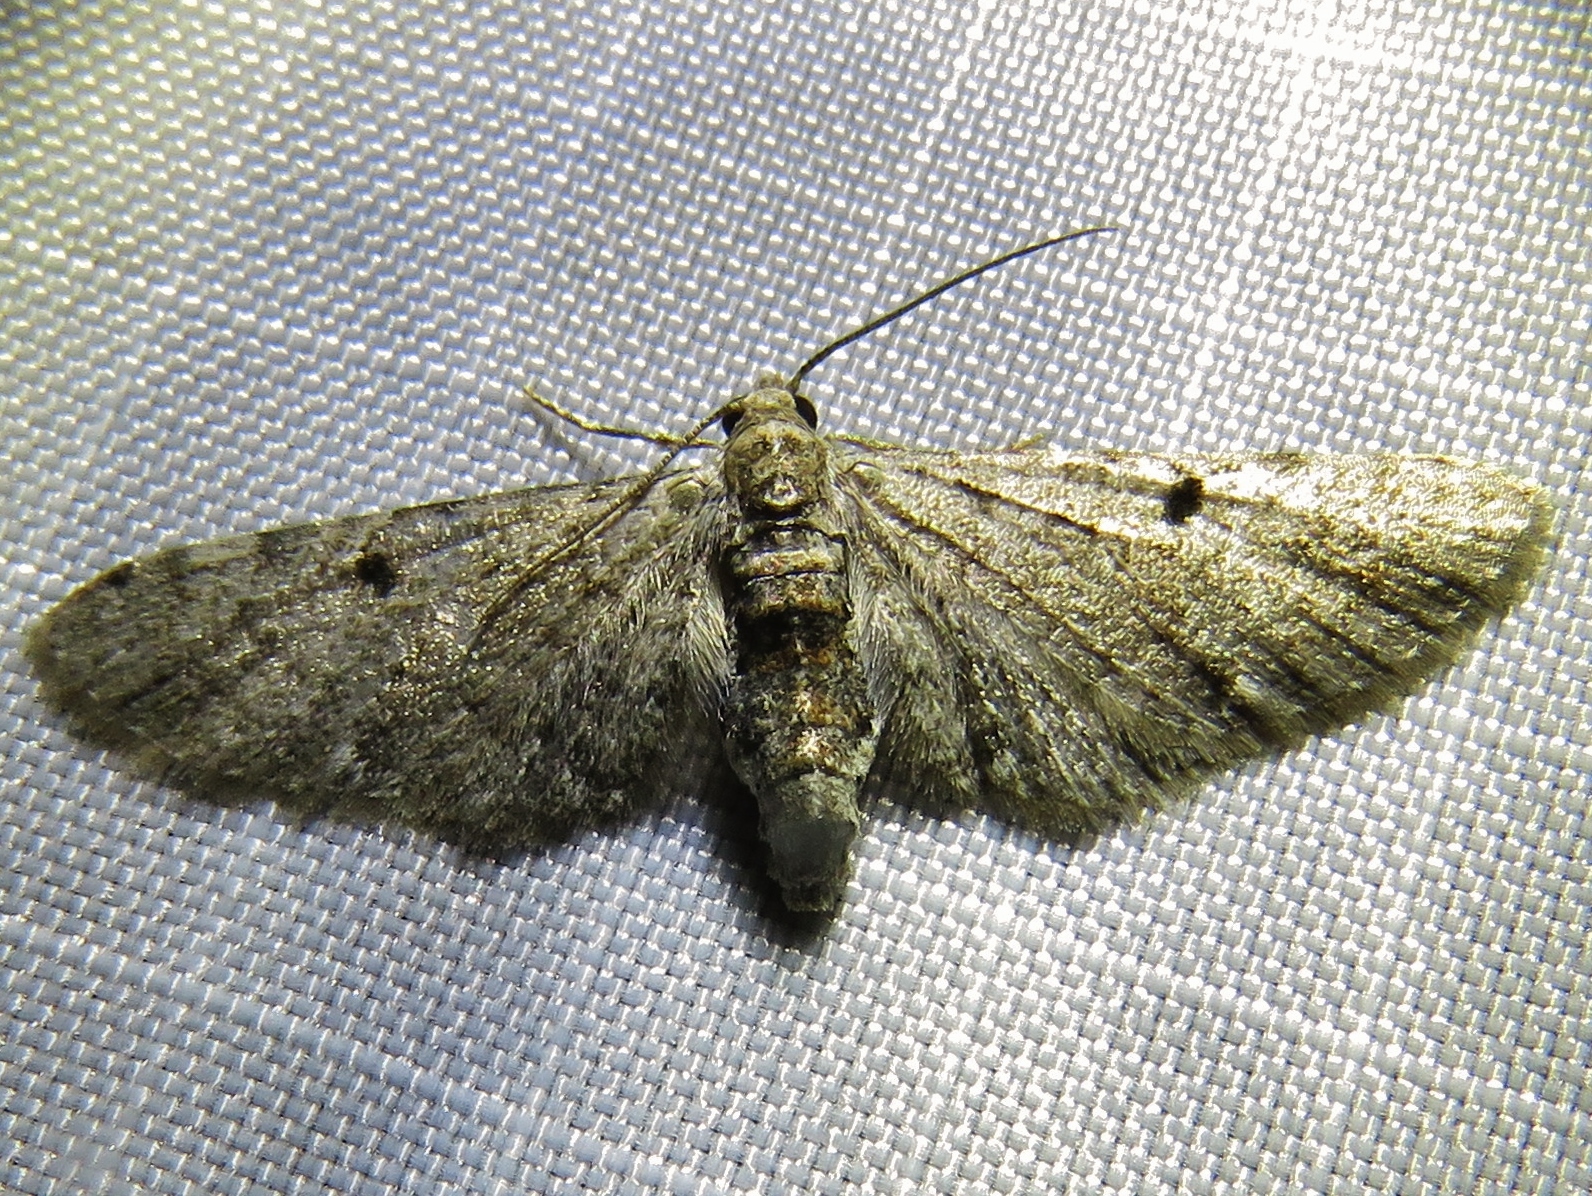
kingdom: Animalia
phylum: Arthropoda
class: Insecta
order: Lepidoptera
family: Geometridae
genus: Eupithecia
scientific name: Eupithecia miserulata
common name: Common eupithecia
